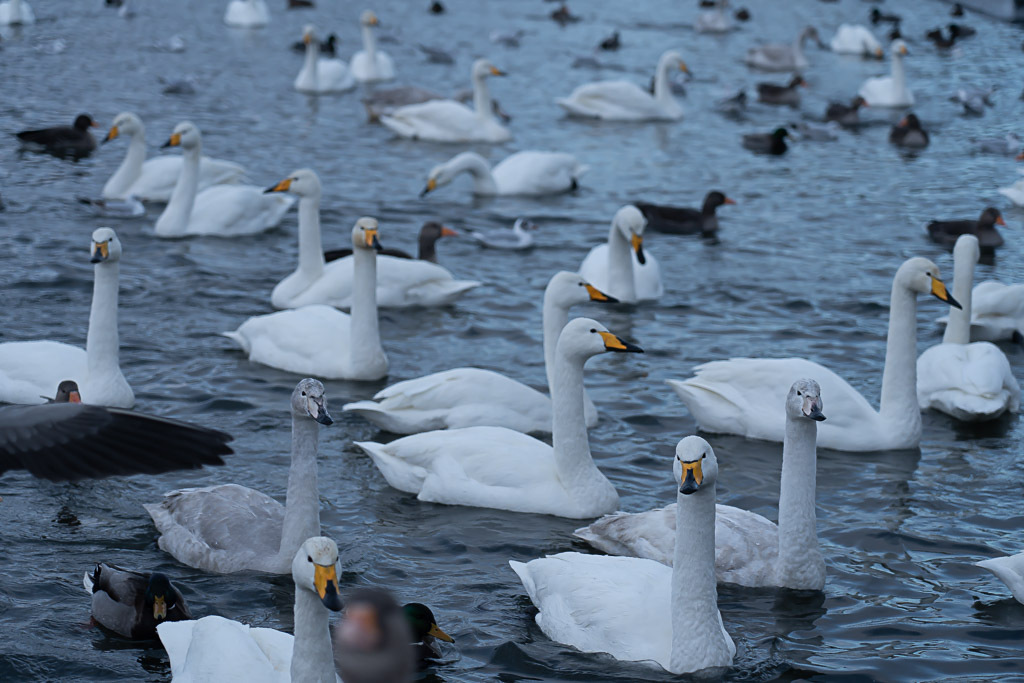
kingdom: Animalia
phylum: Chordata
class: Aves
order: Anseriformes
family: Anatidae
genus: Cygnus
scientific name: Cygnus cygnus
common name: Whooper swan
